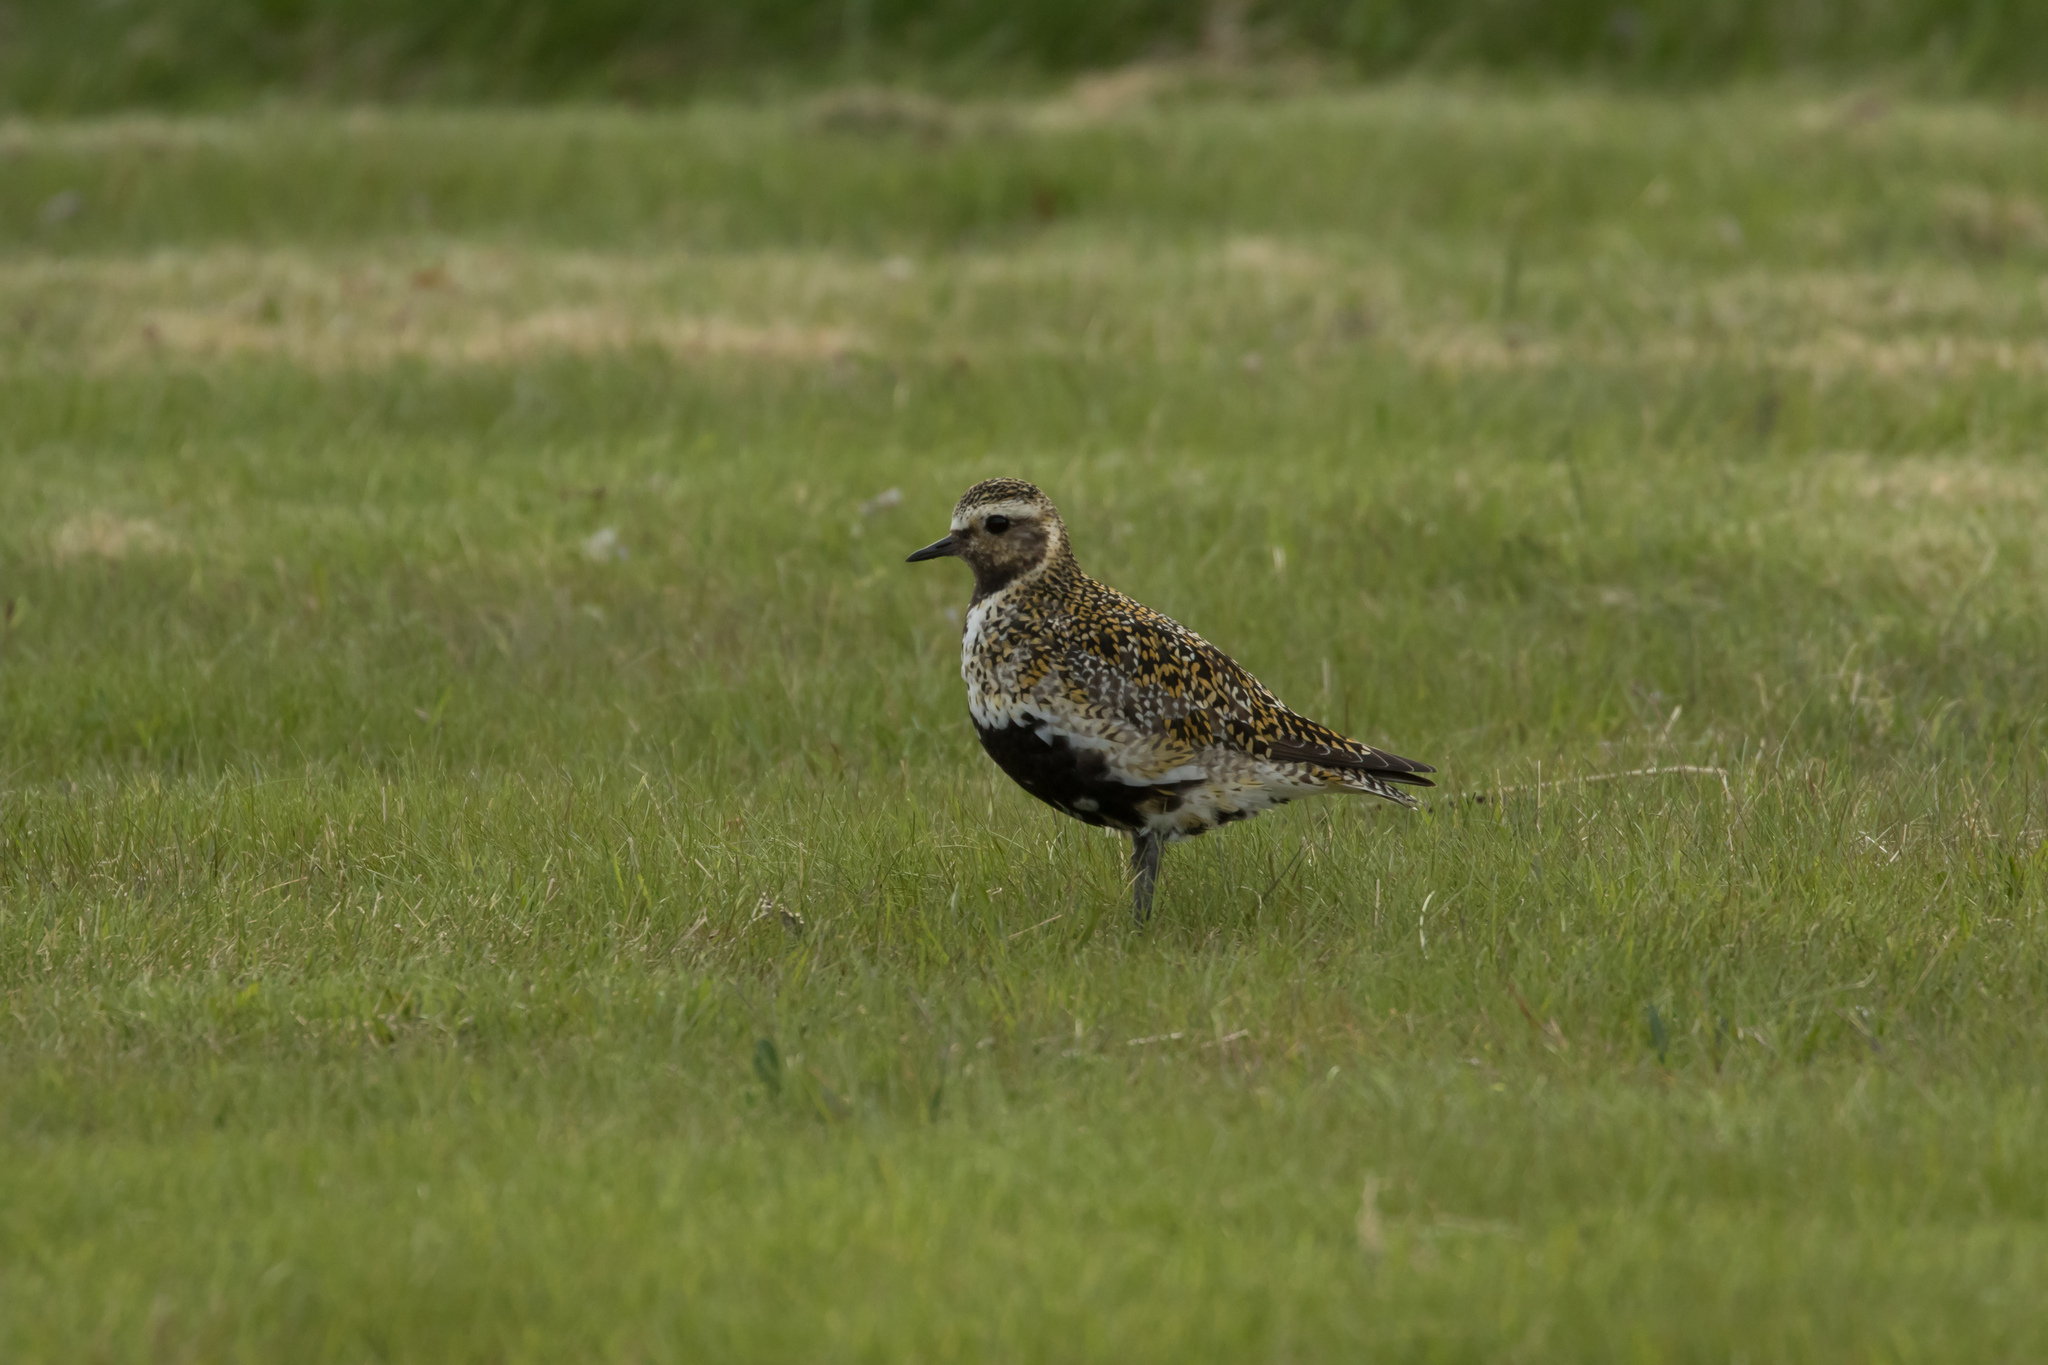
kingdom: Animalia
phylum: Chordata
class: Aves
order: Charadriiformes
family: Charadriidae
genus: Pluvialis
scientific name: Pluvialis apricaria
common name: European golden plover
